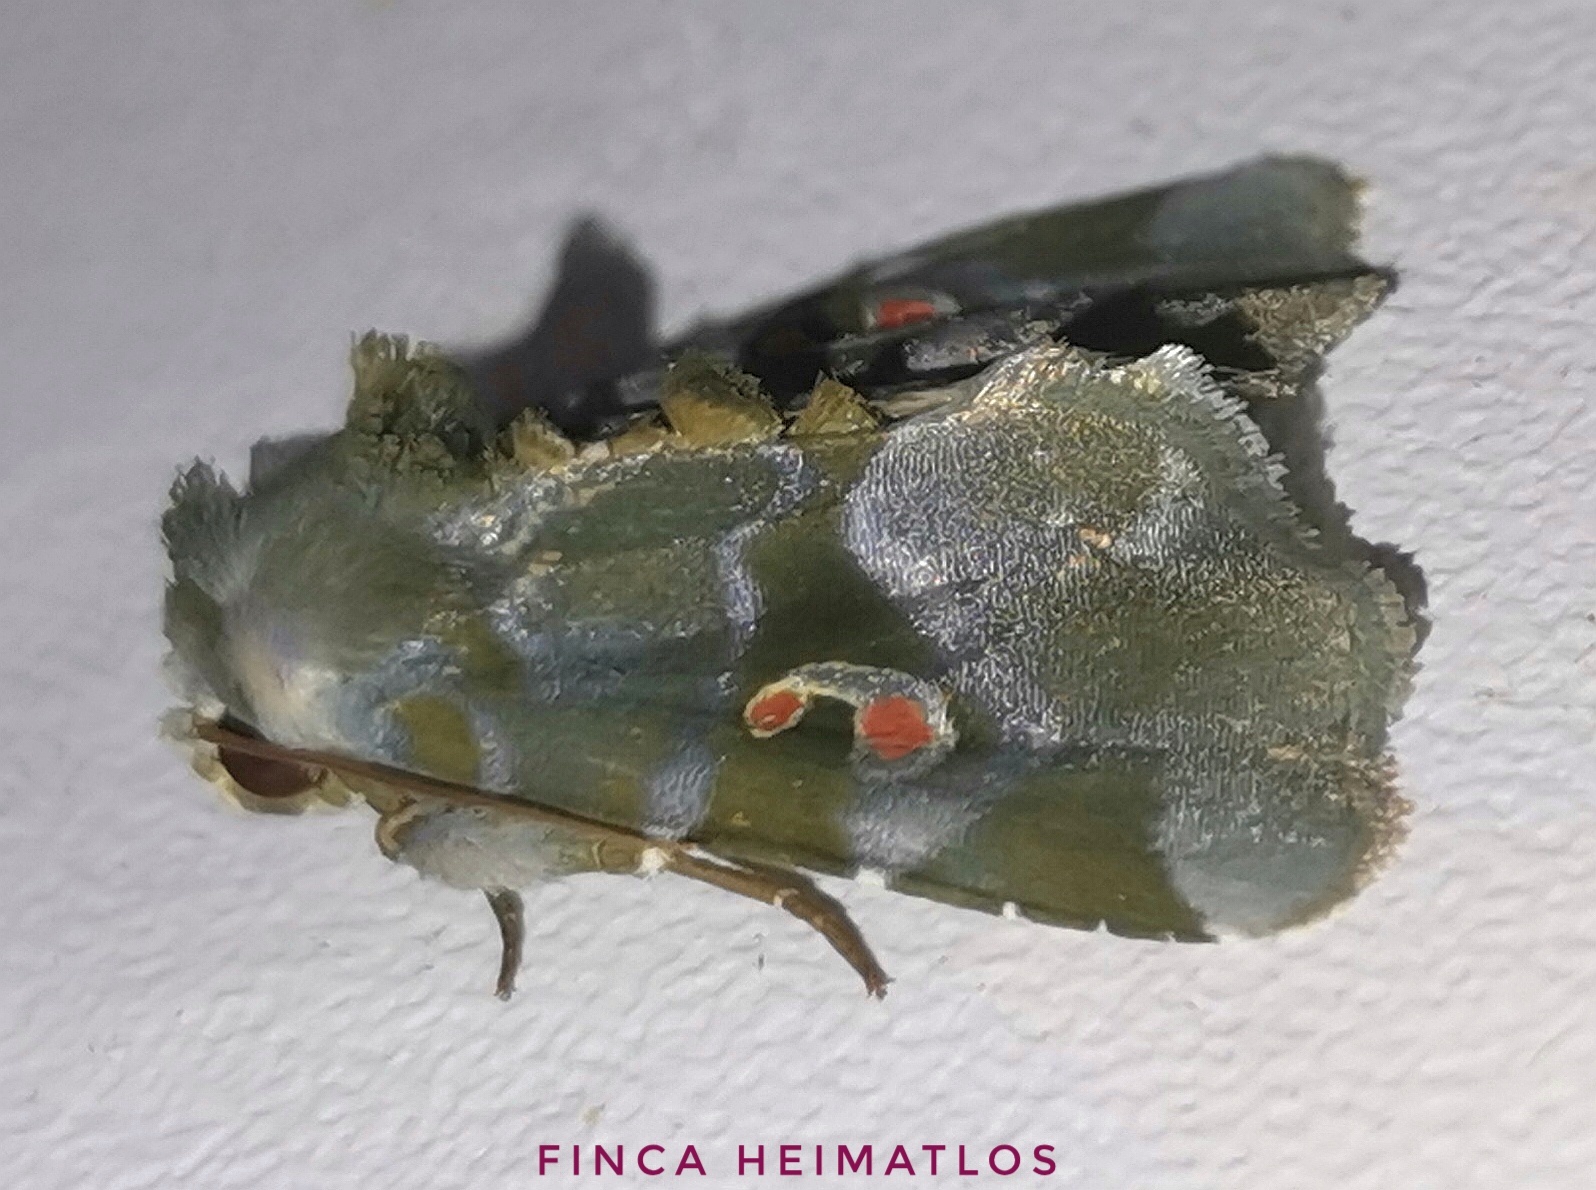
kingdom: Animalia
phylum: Arthropoda
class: Insecta
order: Lepidoptera
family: Noctuidae
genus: Fracara
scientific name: Fracara viridata
